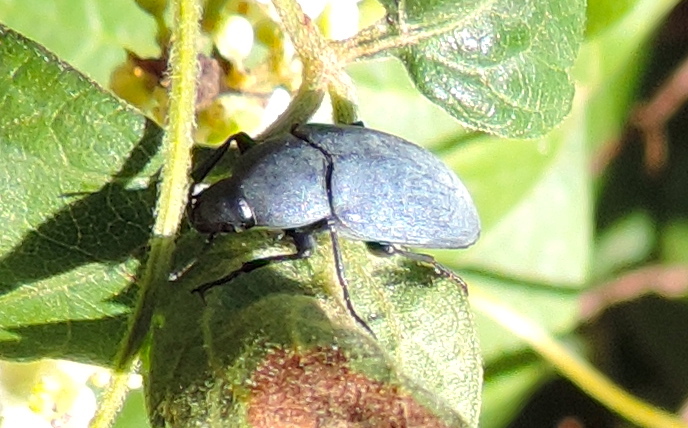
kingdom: Animalia
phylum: Arthropoda
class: Insecta
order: Coleoptera
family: Tenebrionidae
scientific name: Tenebrionidae
